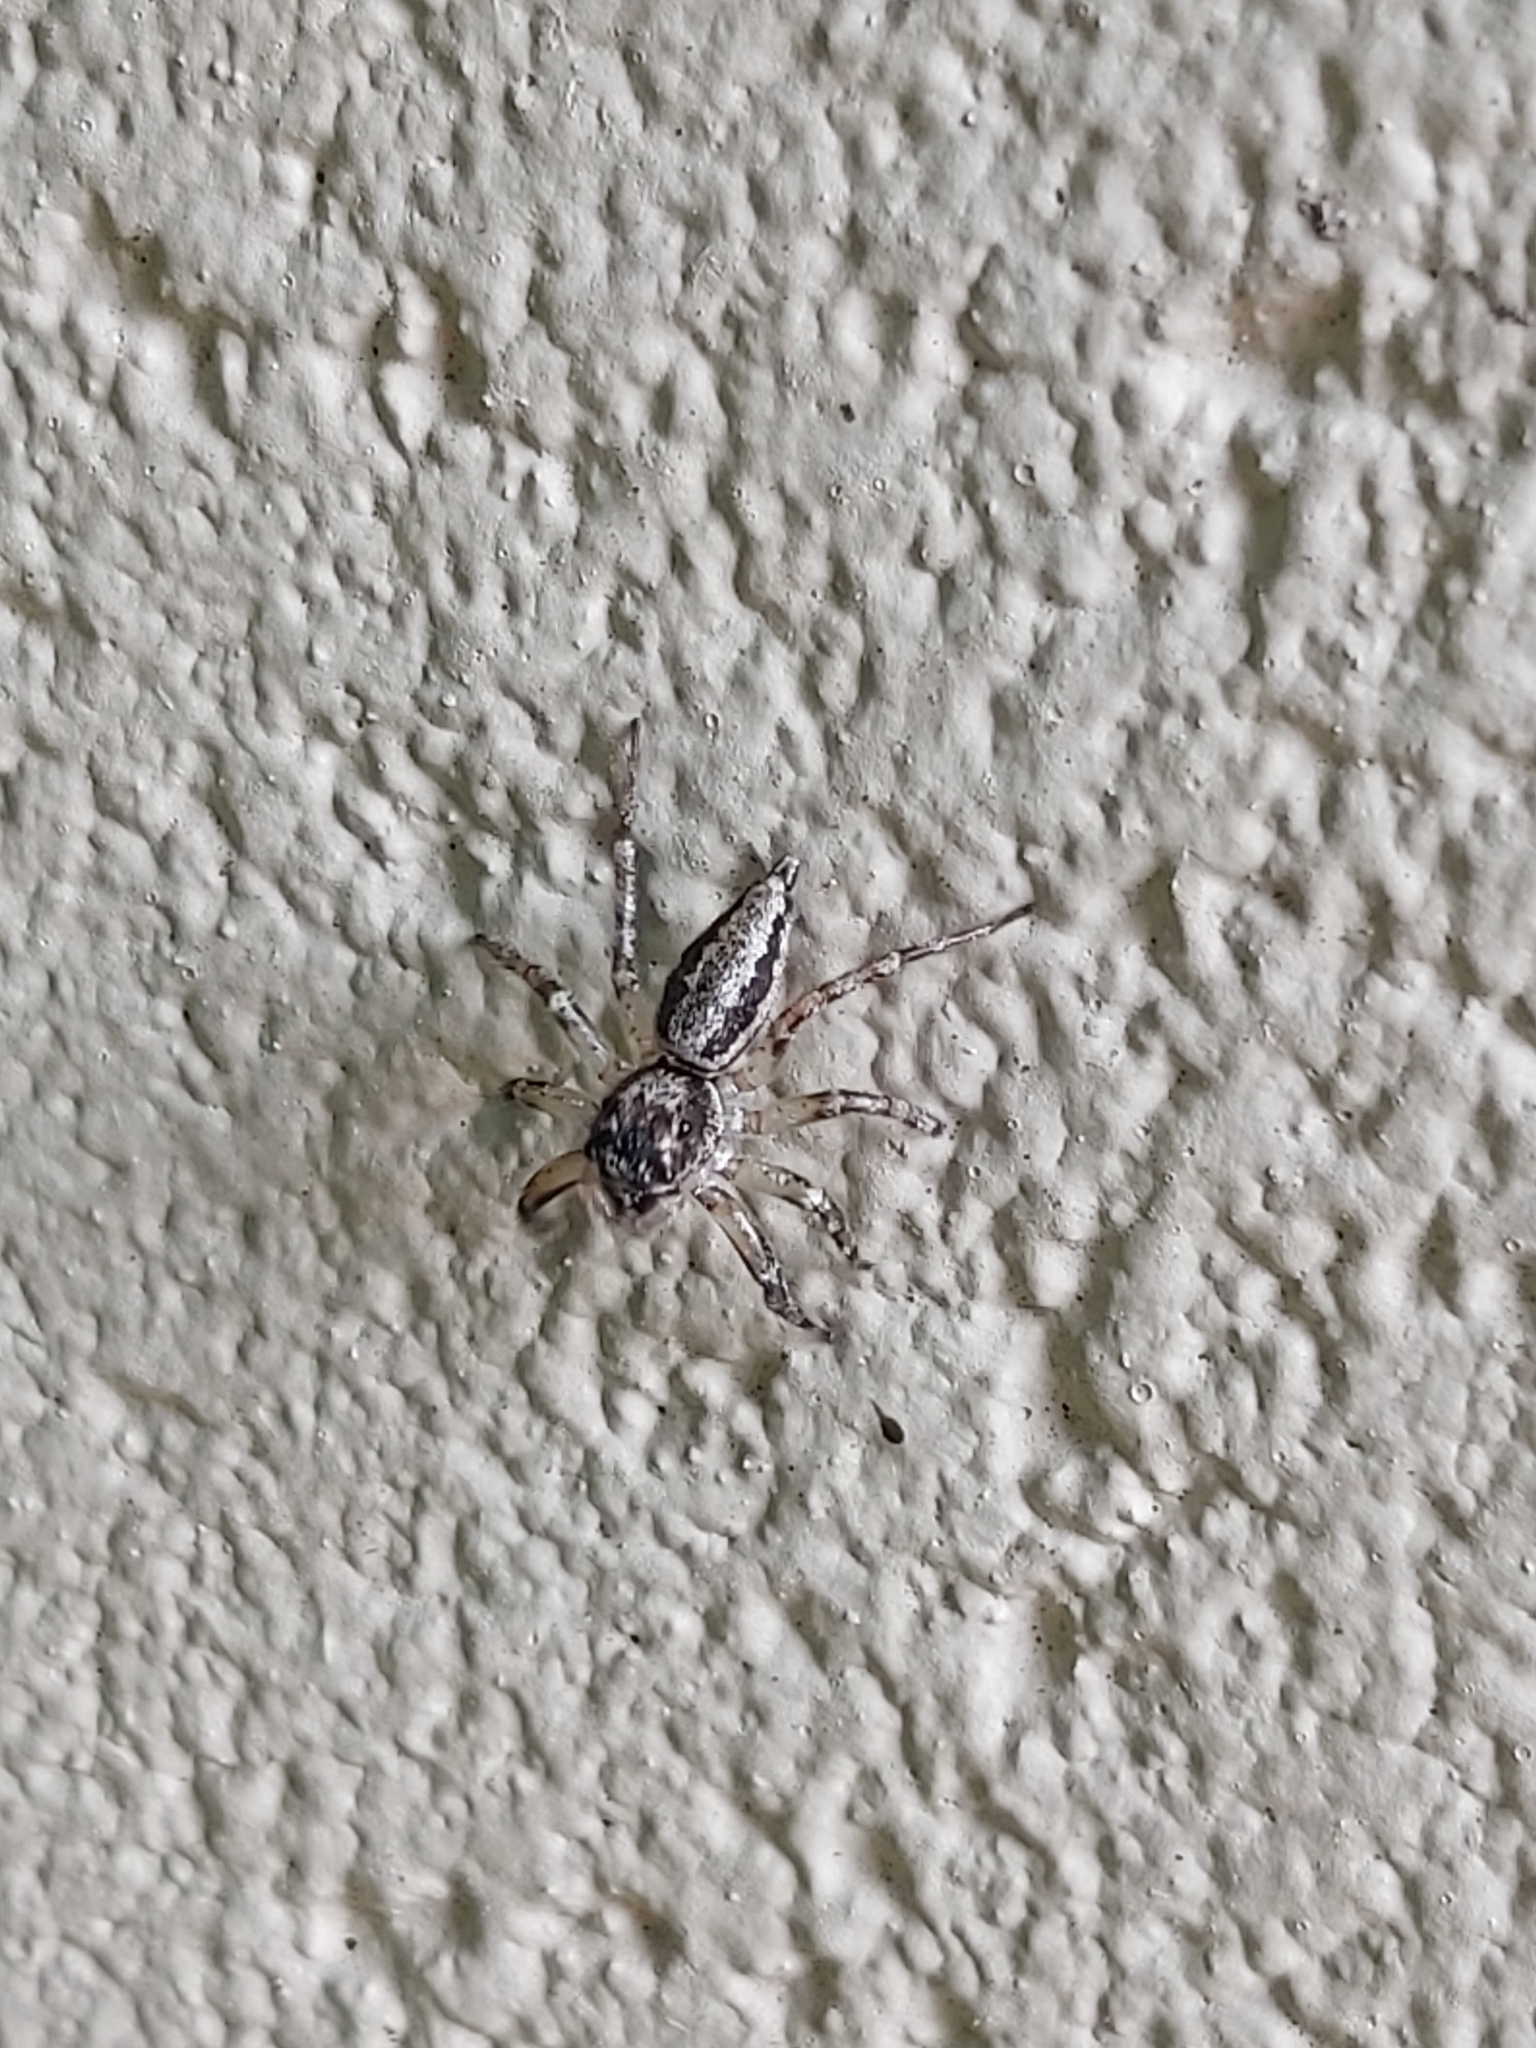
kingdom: Animalia
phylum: Arthropoda
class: Arachnida
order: Araneae
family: Salticidae
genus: Zenodorus
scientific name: Zenodorus swiftorum
